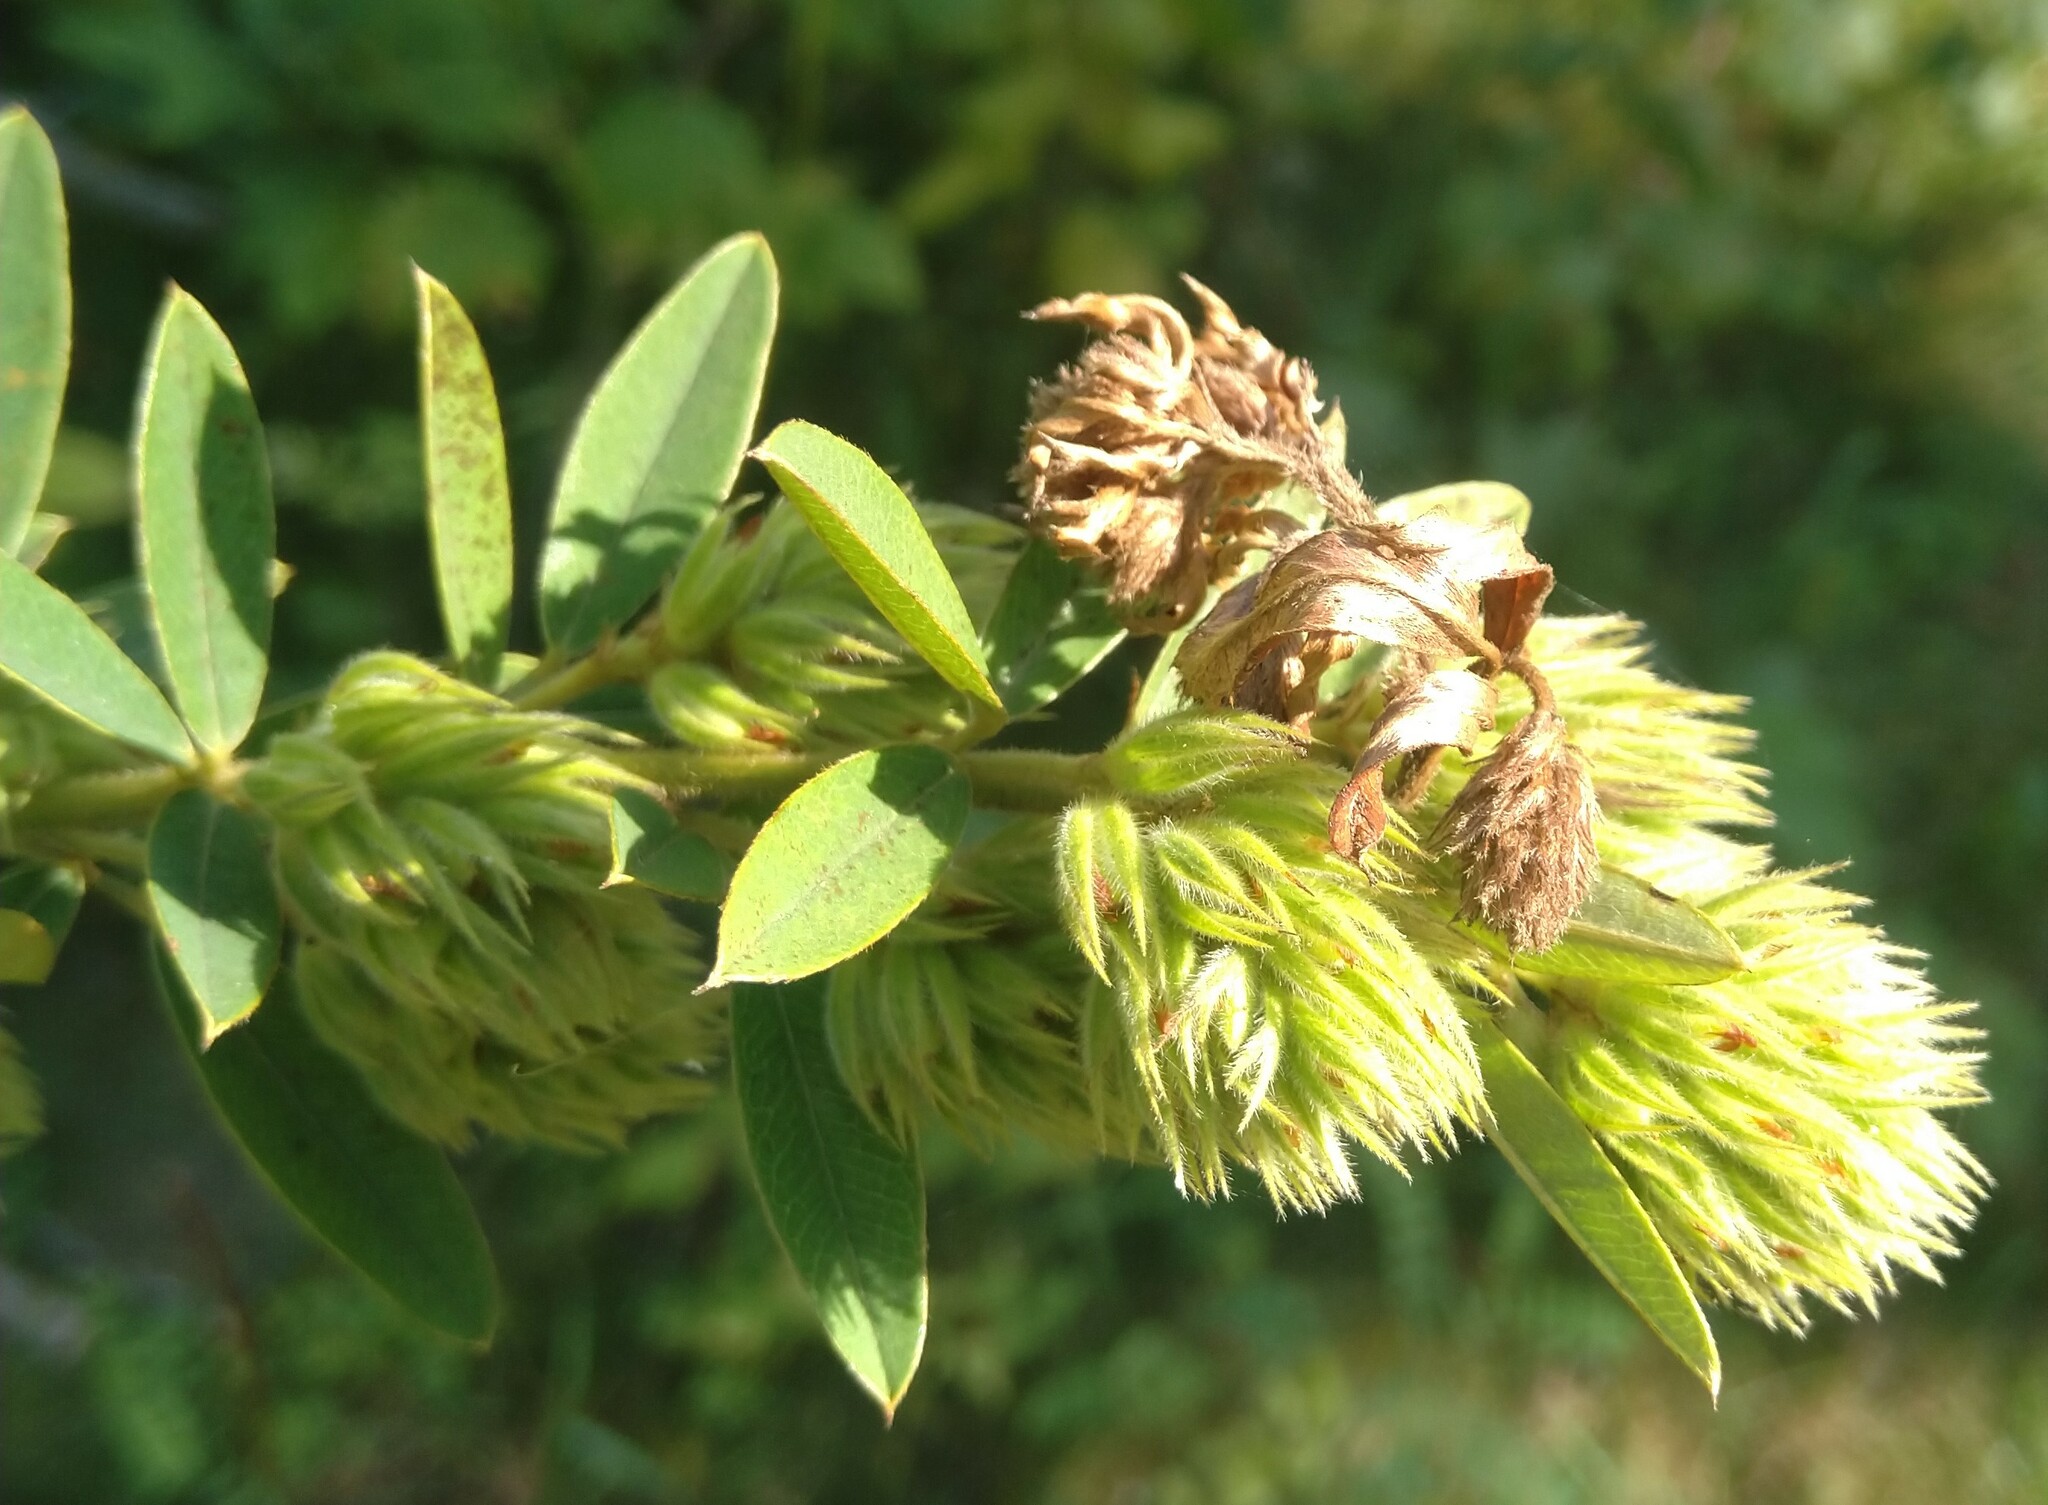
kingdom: Plantae
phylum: Tracheophyta
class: Magnoliopsida
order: Fabales
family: Fabaceae
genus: Lespedeza
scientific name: Lespedeza capitata
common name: Dusty clover
